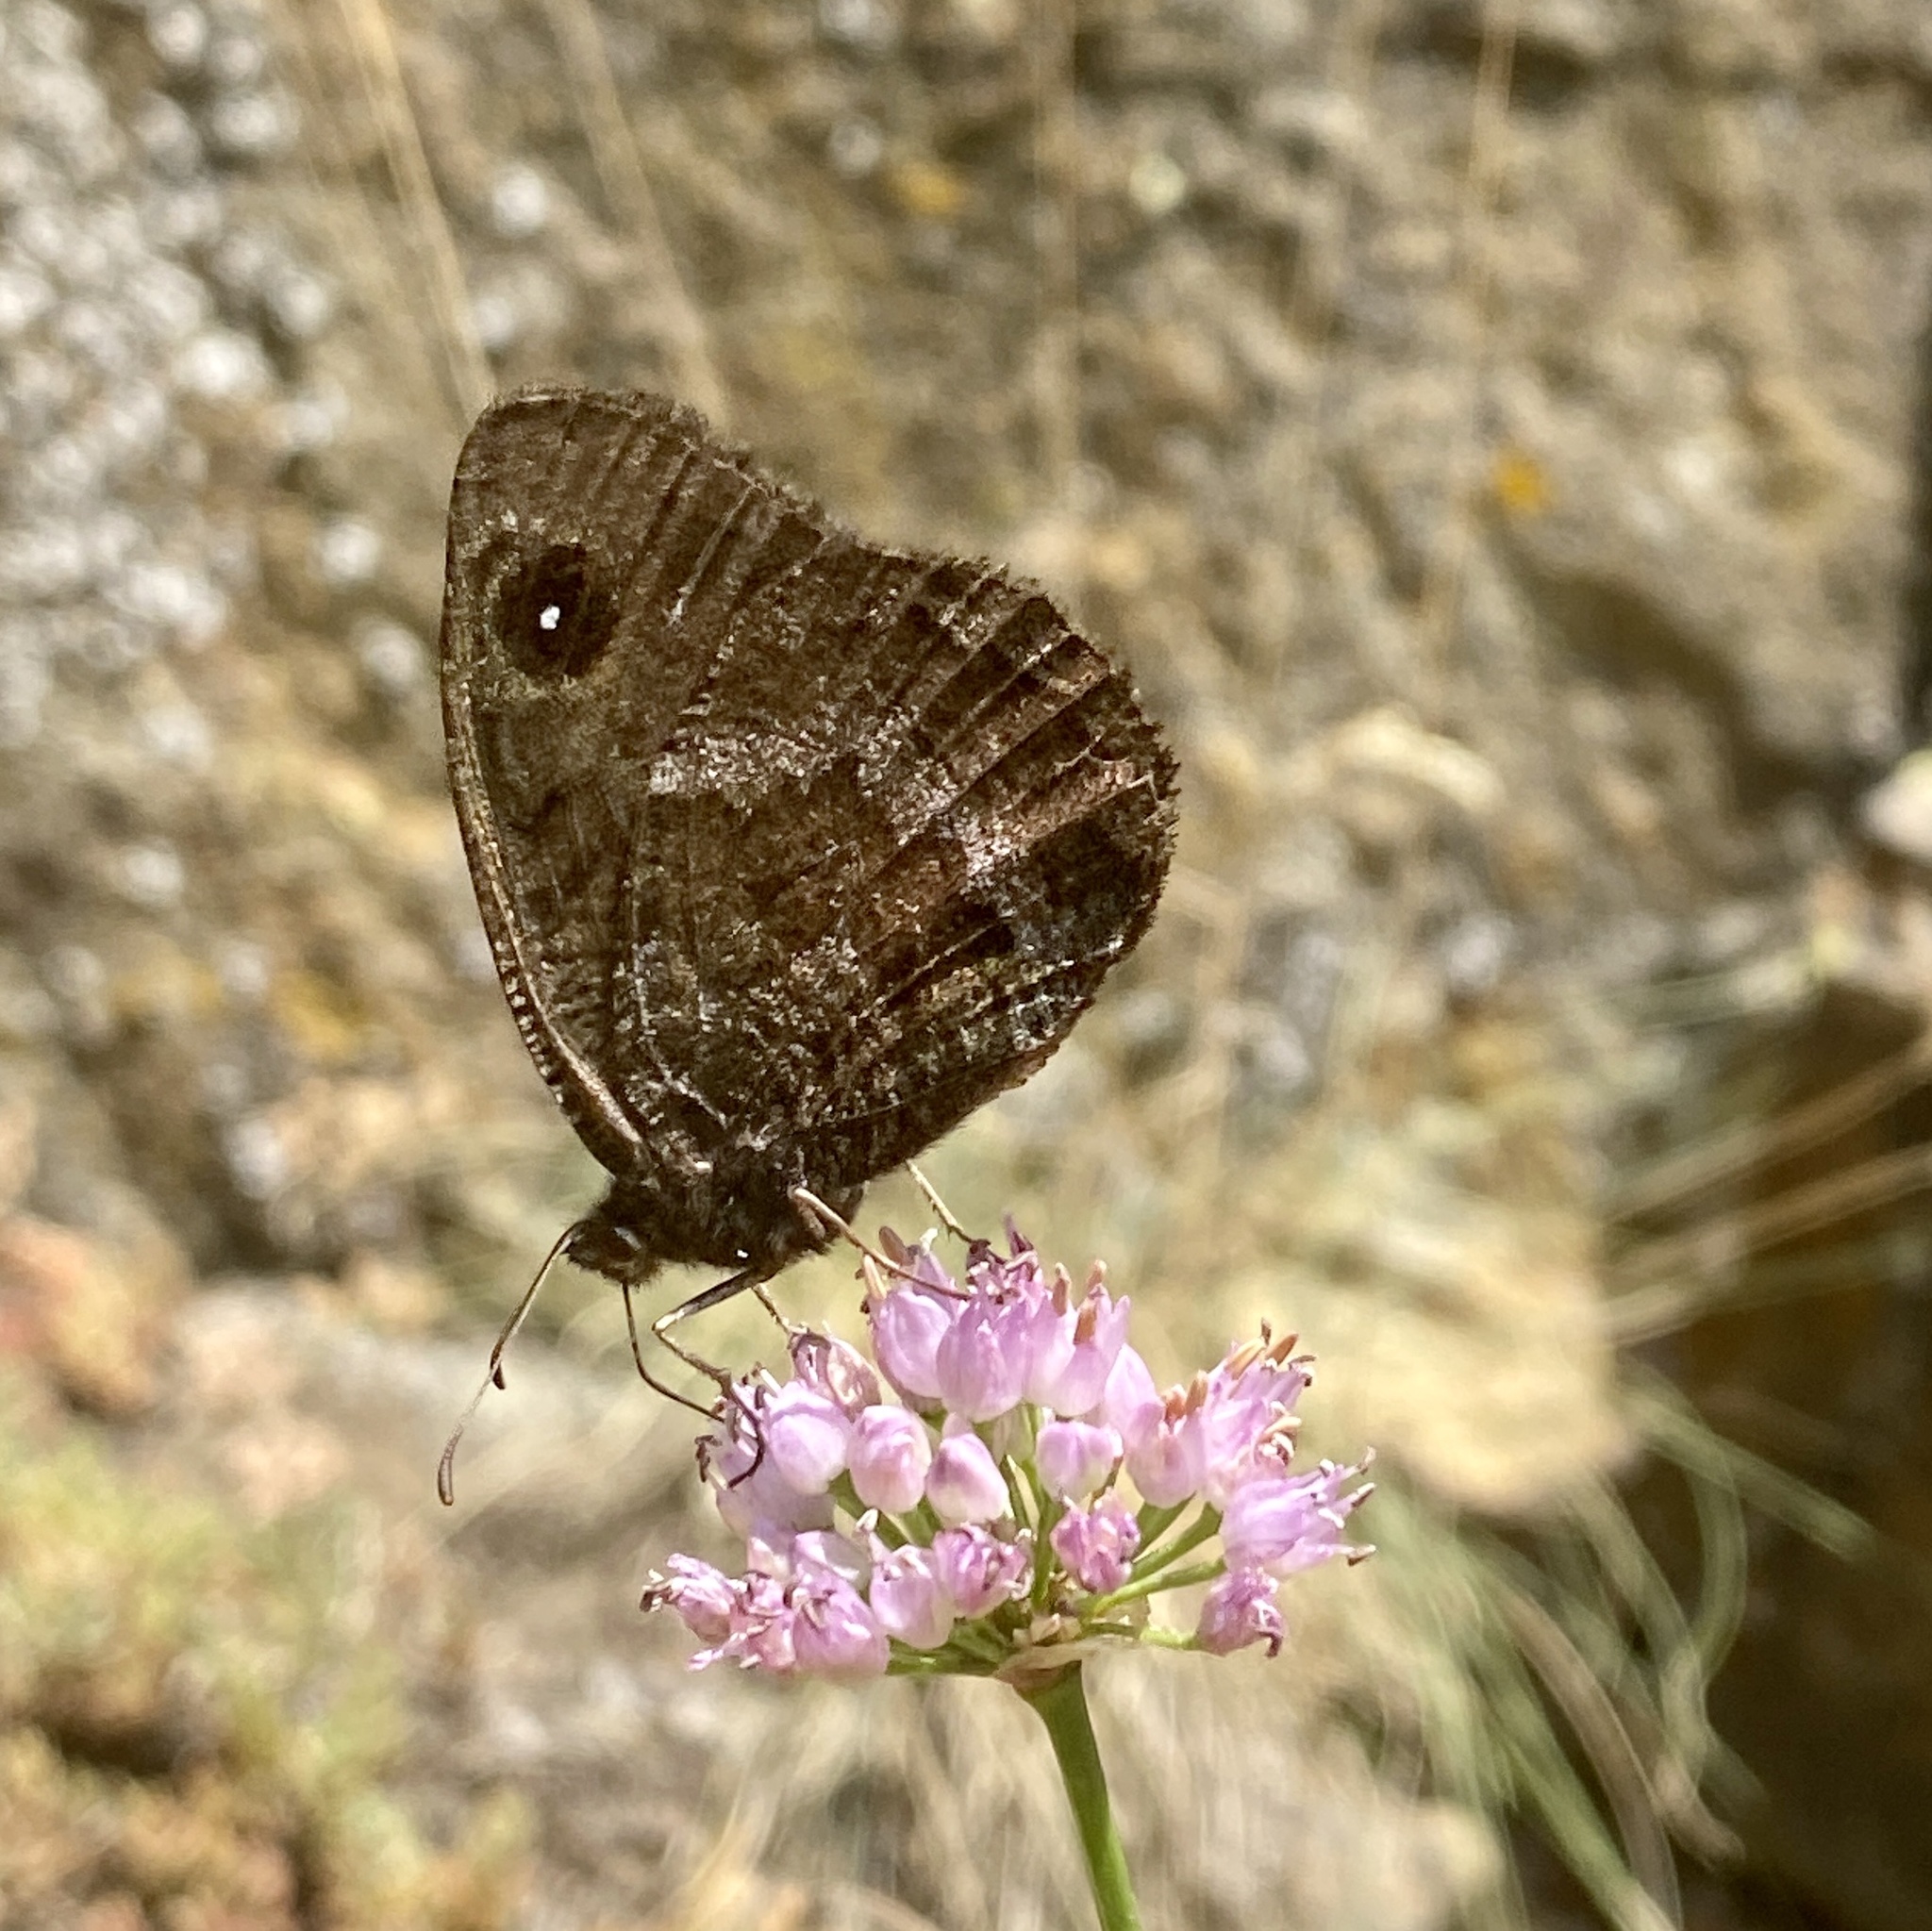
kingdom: Animalia
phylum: Arthropoda
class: Insecta
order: Lepidoptera
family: Nymphalidae
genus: Satyrus
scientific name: Satyrus actaea
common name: Black satyr
